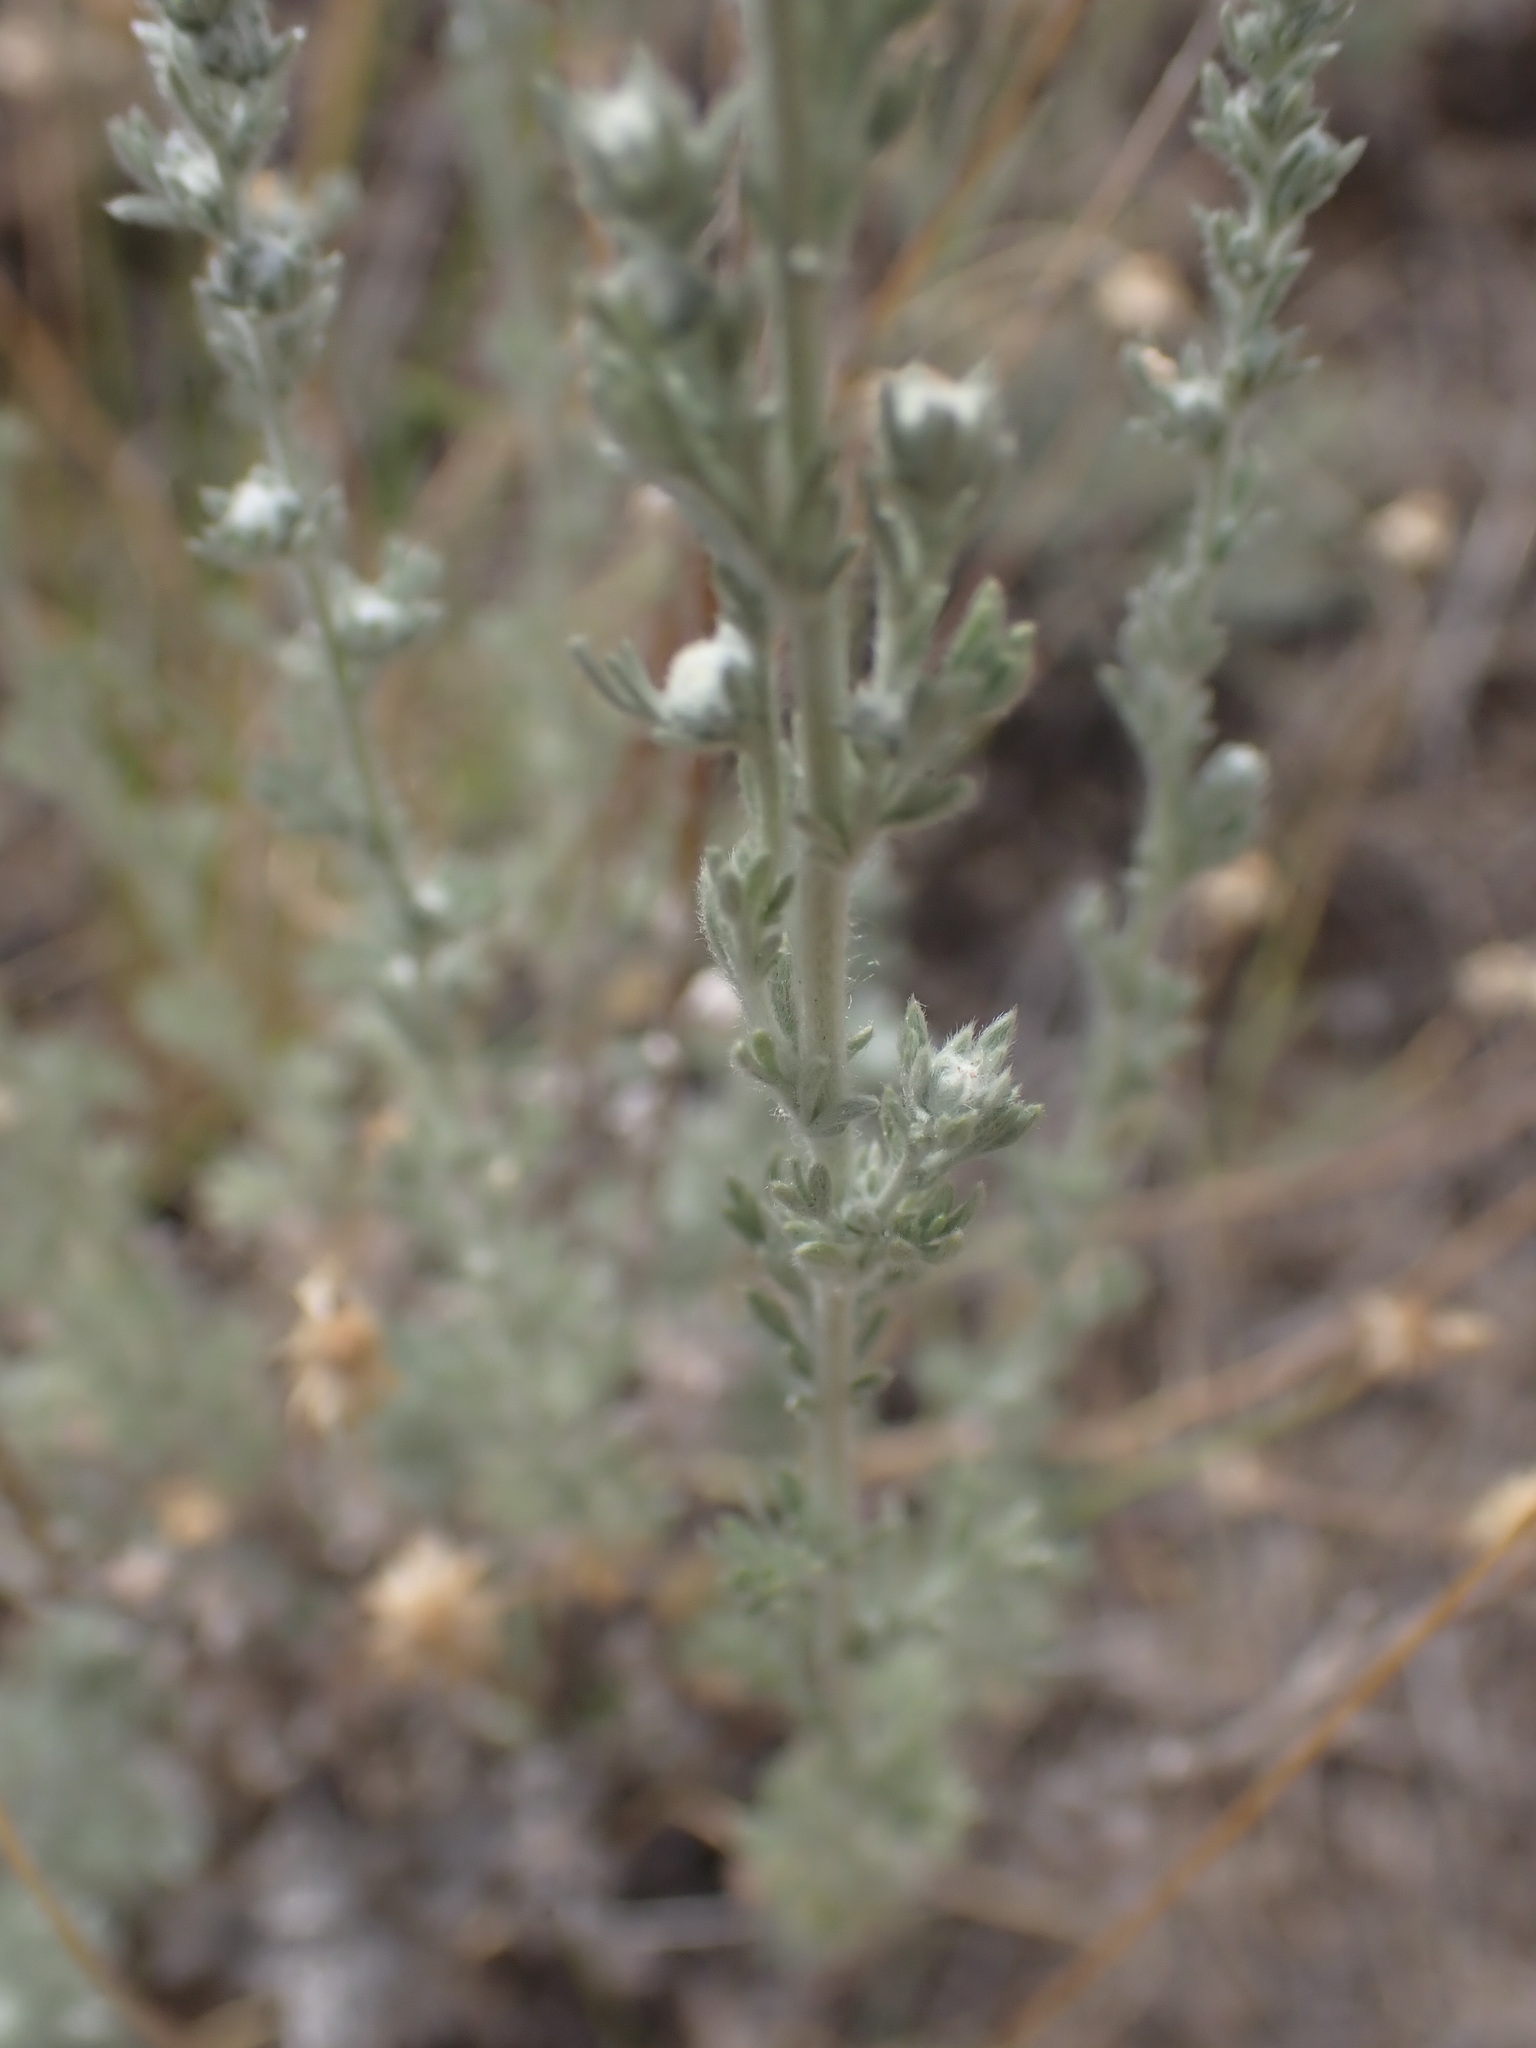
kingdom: Plantae
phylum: Tracheophyta
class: Magnoliopsida
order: Asterales
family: Asteraceae
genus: Artemisia
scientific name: Artemisia frigida
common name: Prairie sagewort
